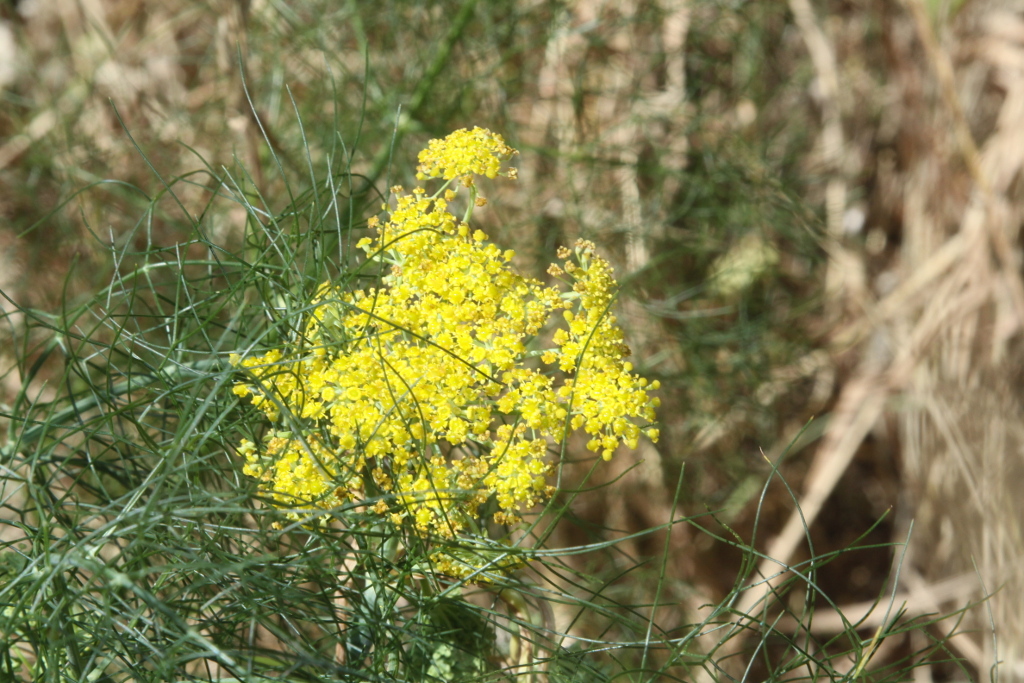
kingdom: Plantae
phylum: Tracheophyta
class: Magnoliopsida
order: Apiales
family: Apiaceae
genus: Foeniculum
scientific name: Foeniculum vulgare
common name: Fennel
